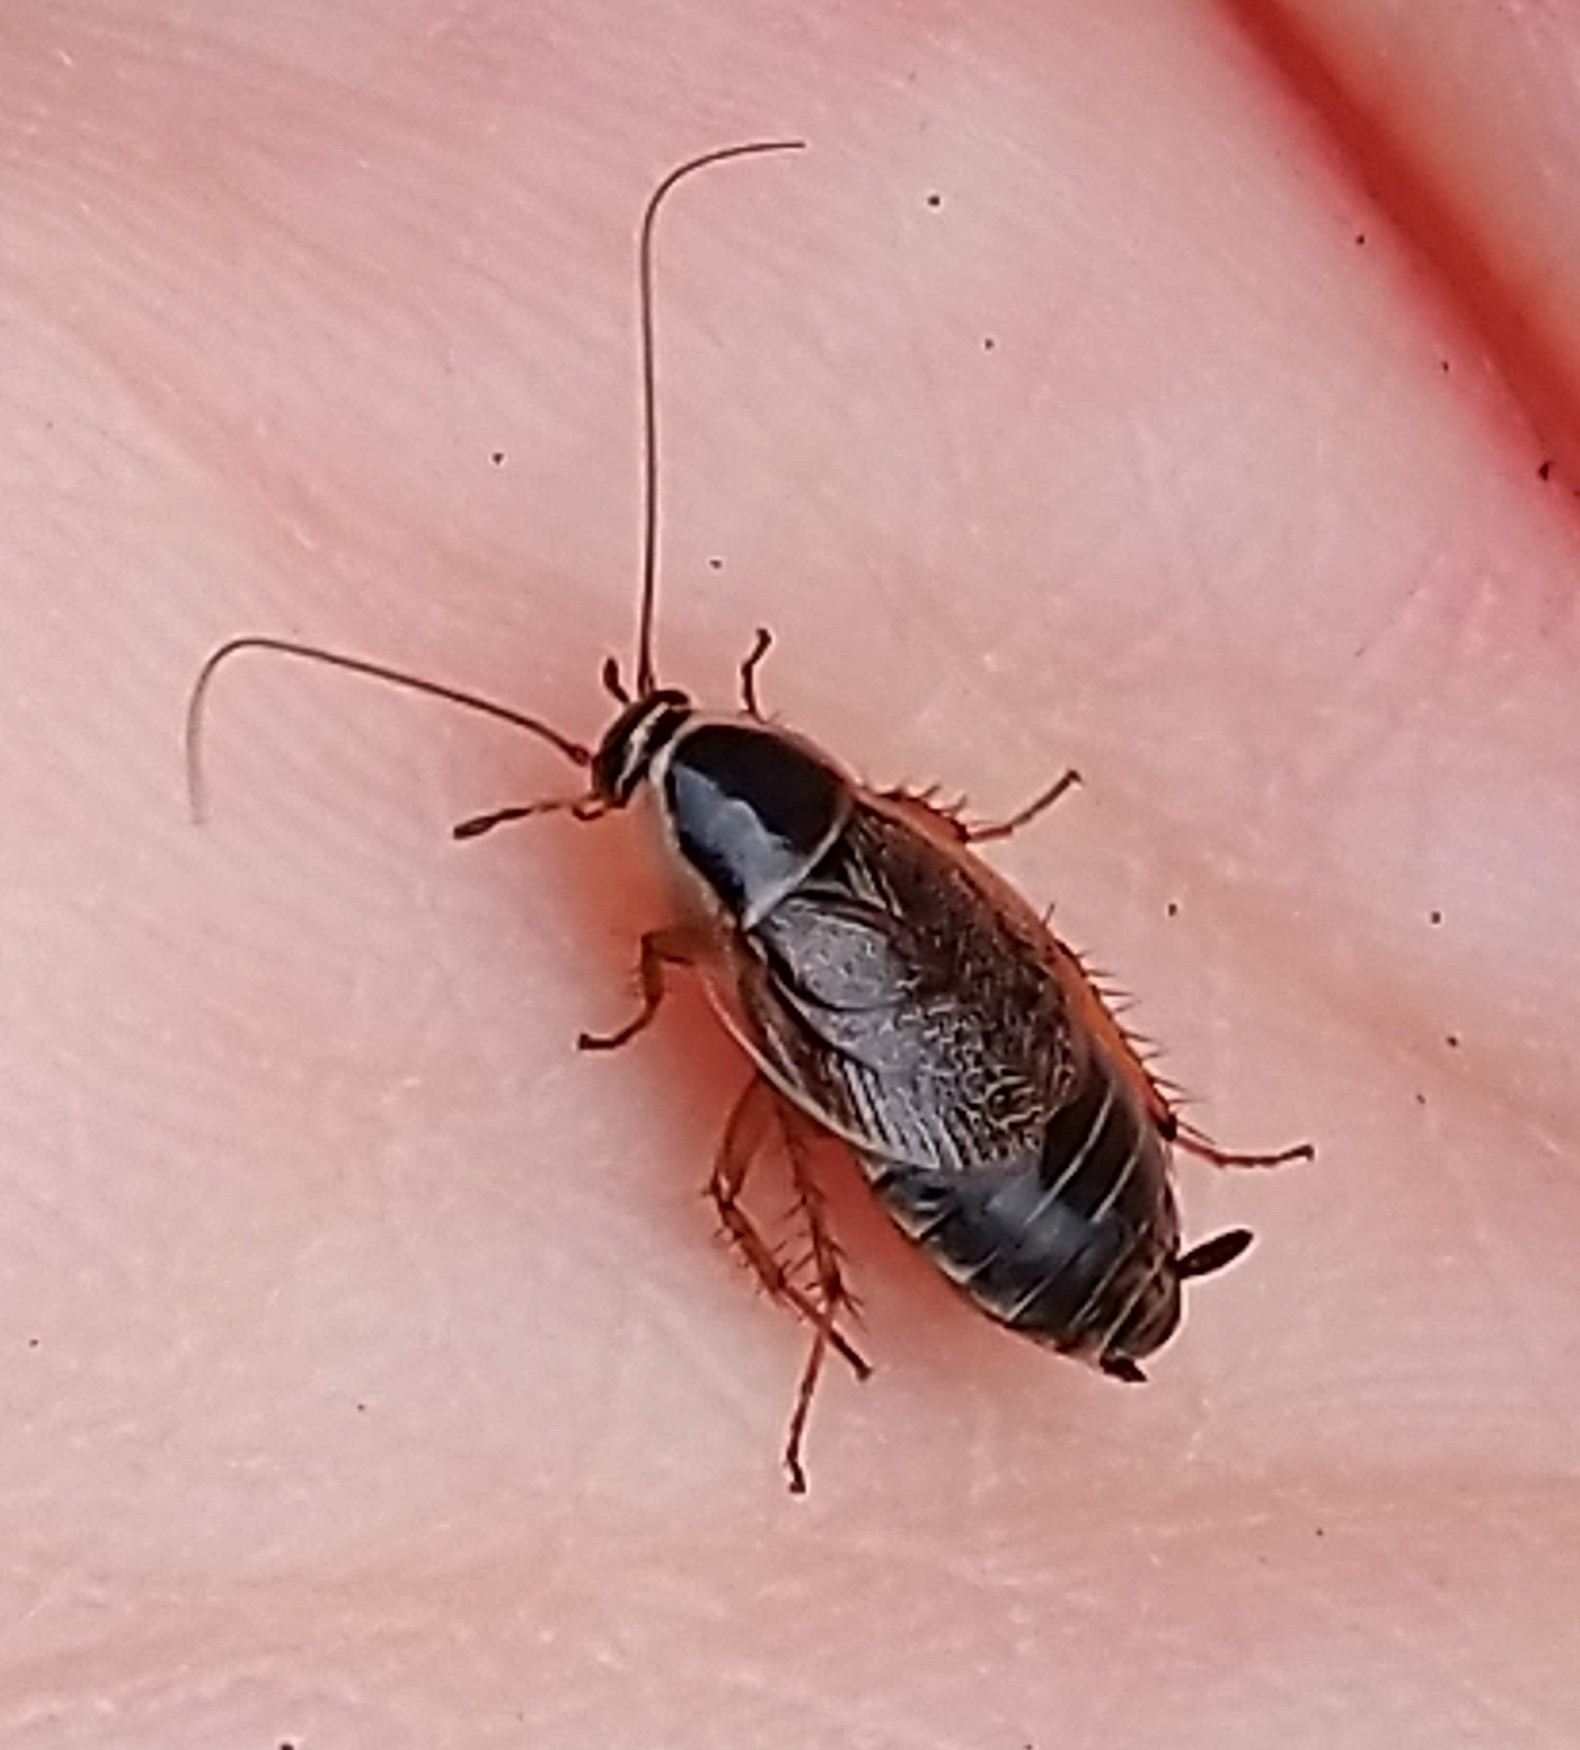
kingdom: Animalia
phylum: Arthropoda
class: Insecta
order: Blattodea
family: Ectobiidae
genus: Ectobius
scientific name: Ectobius sylvestris
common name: Forest cockroach
